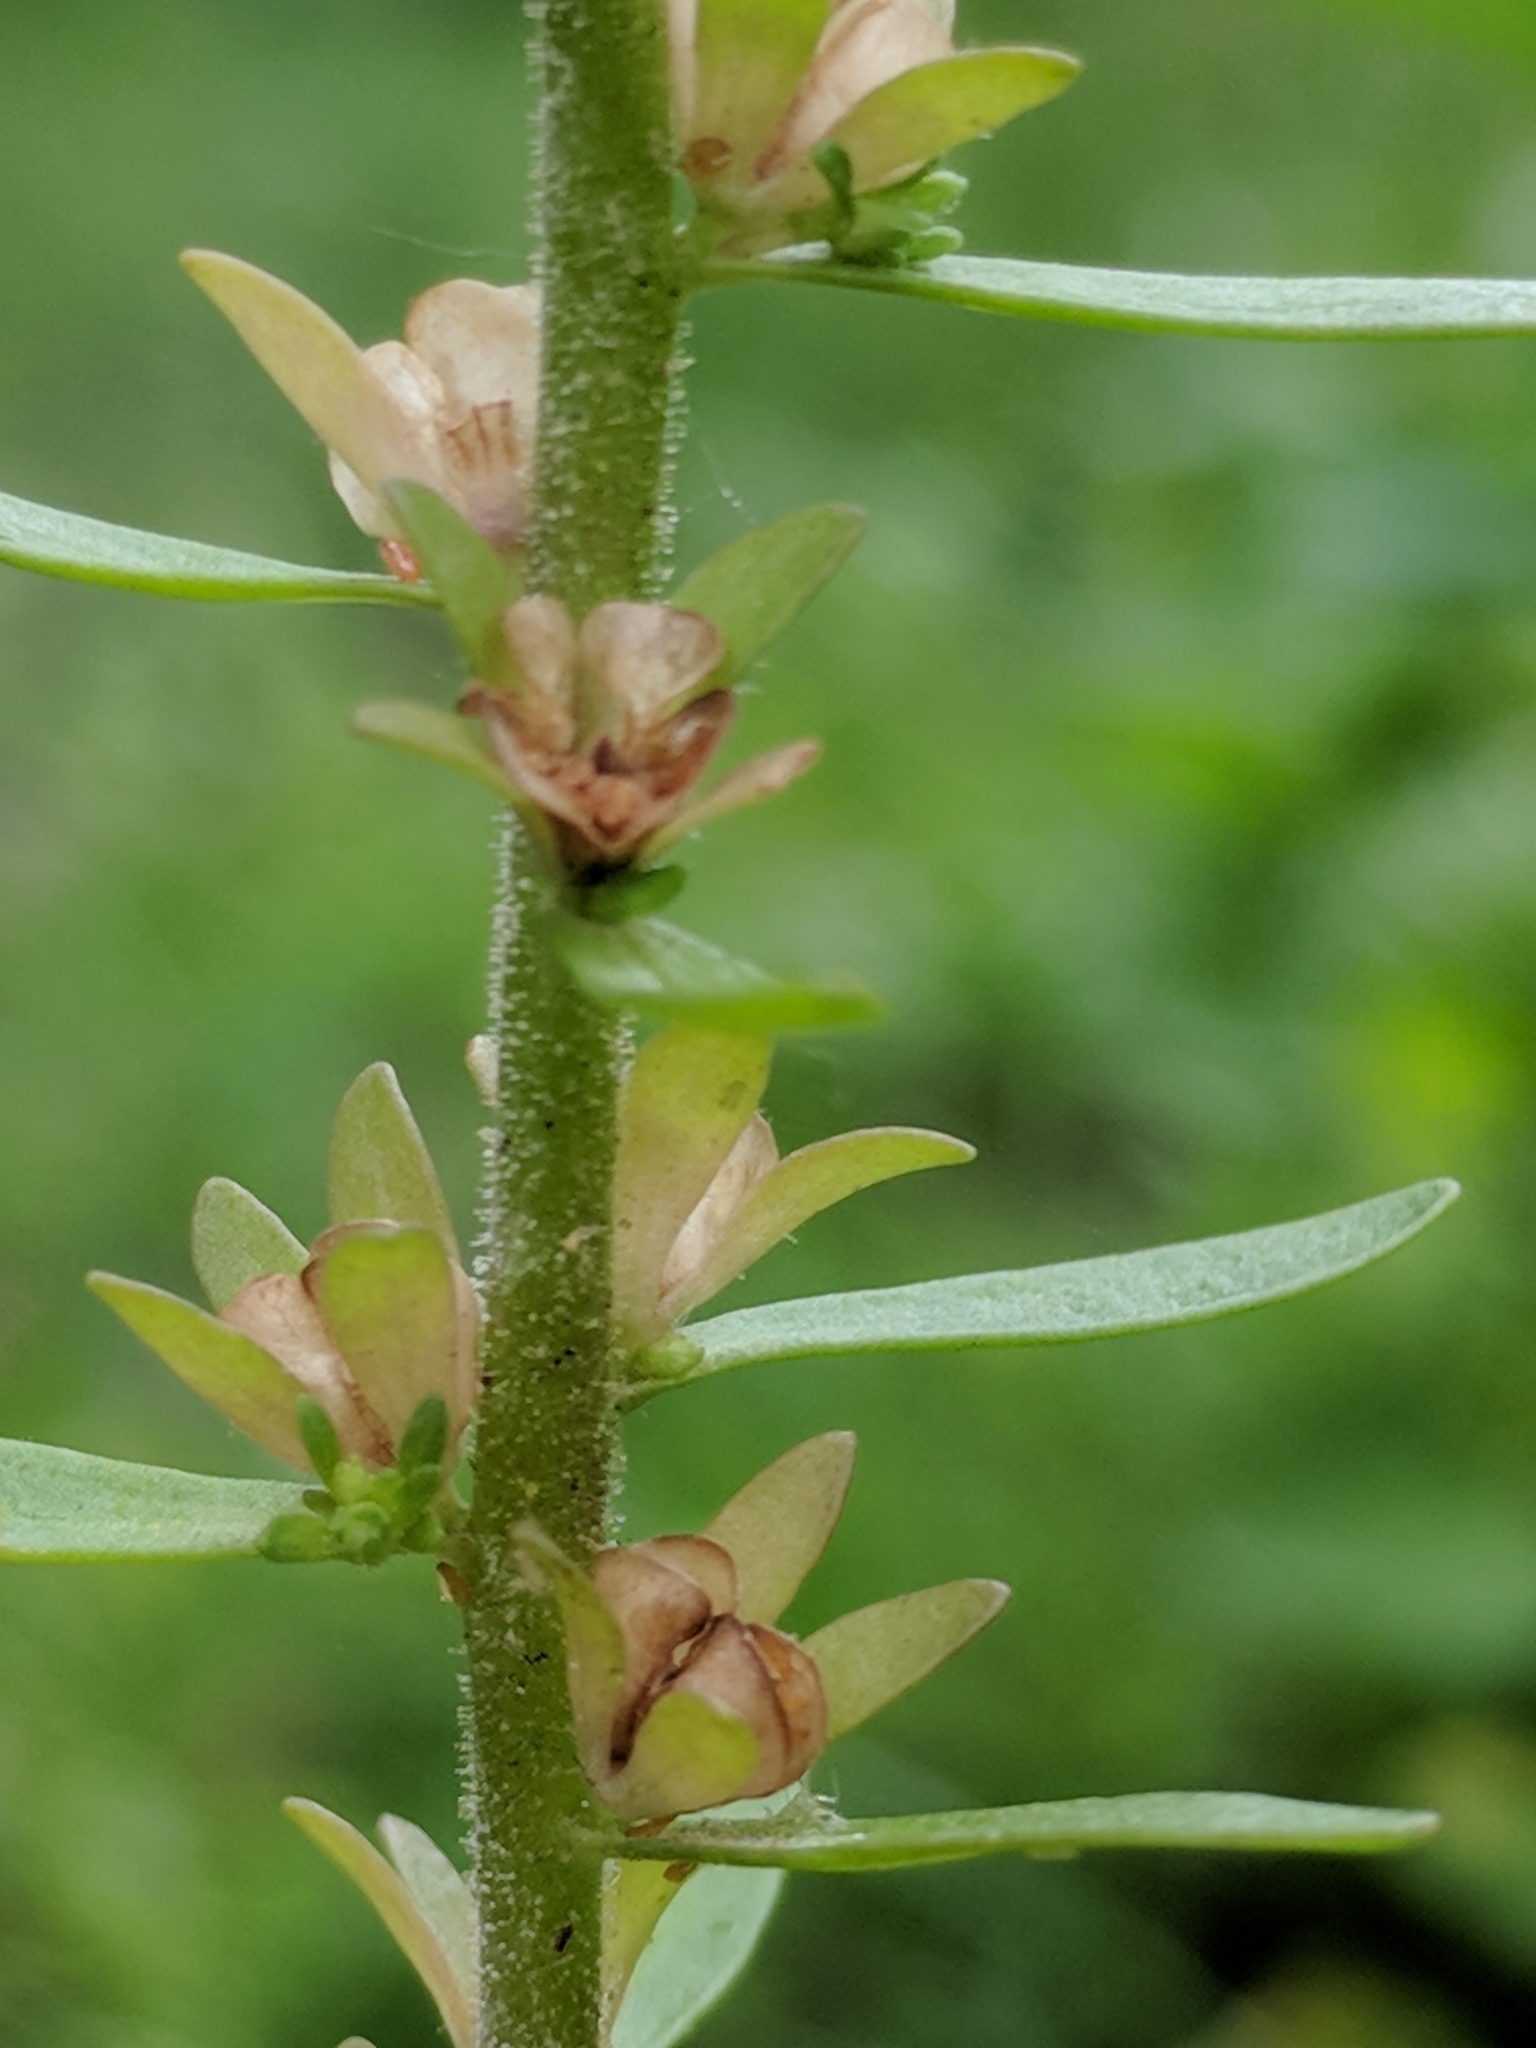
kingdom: Plantae
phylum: Tracheophyta
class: Magnoliopsida
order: Lamiales
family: Plantaginaceae
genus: Veronica
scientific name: Veronica peregrina
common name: Neckweed
